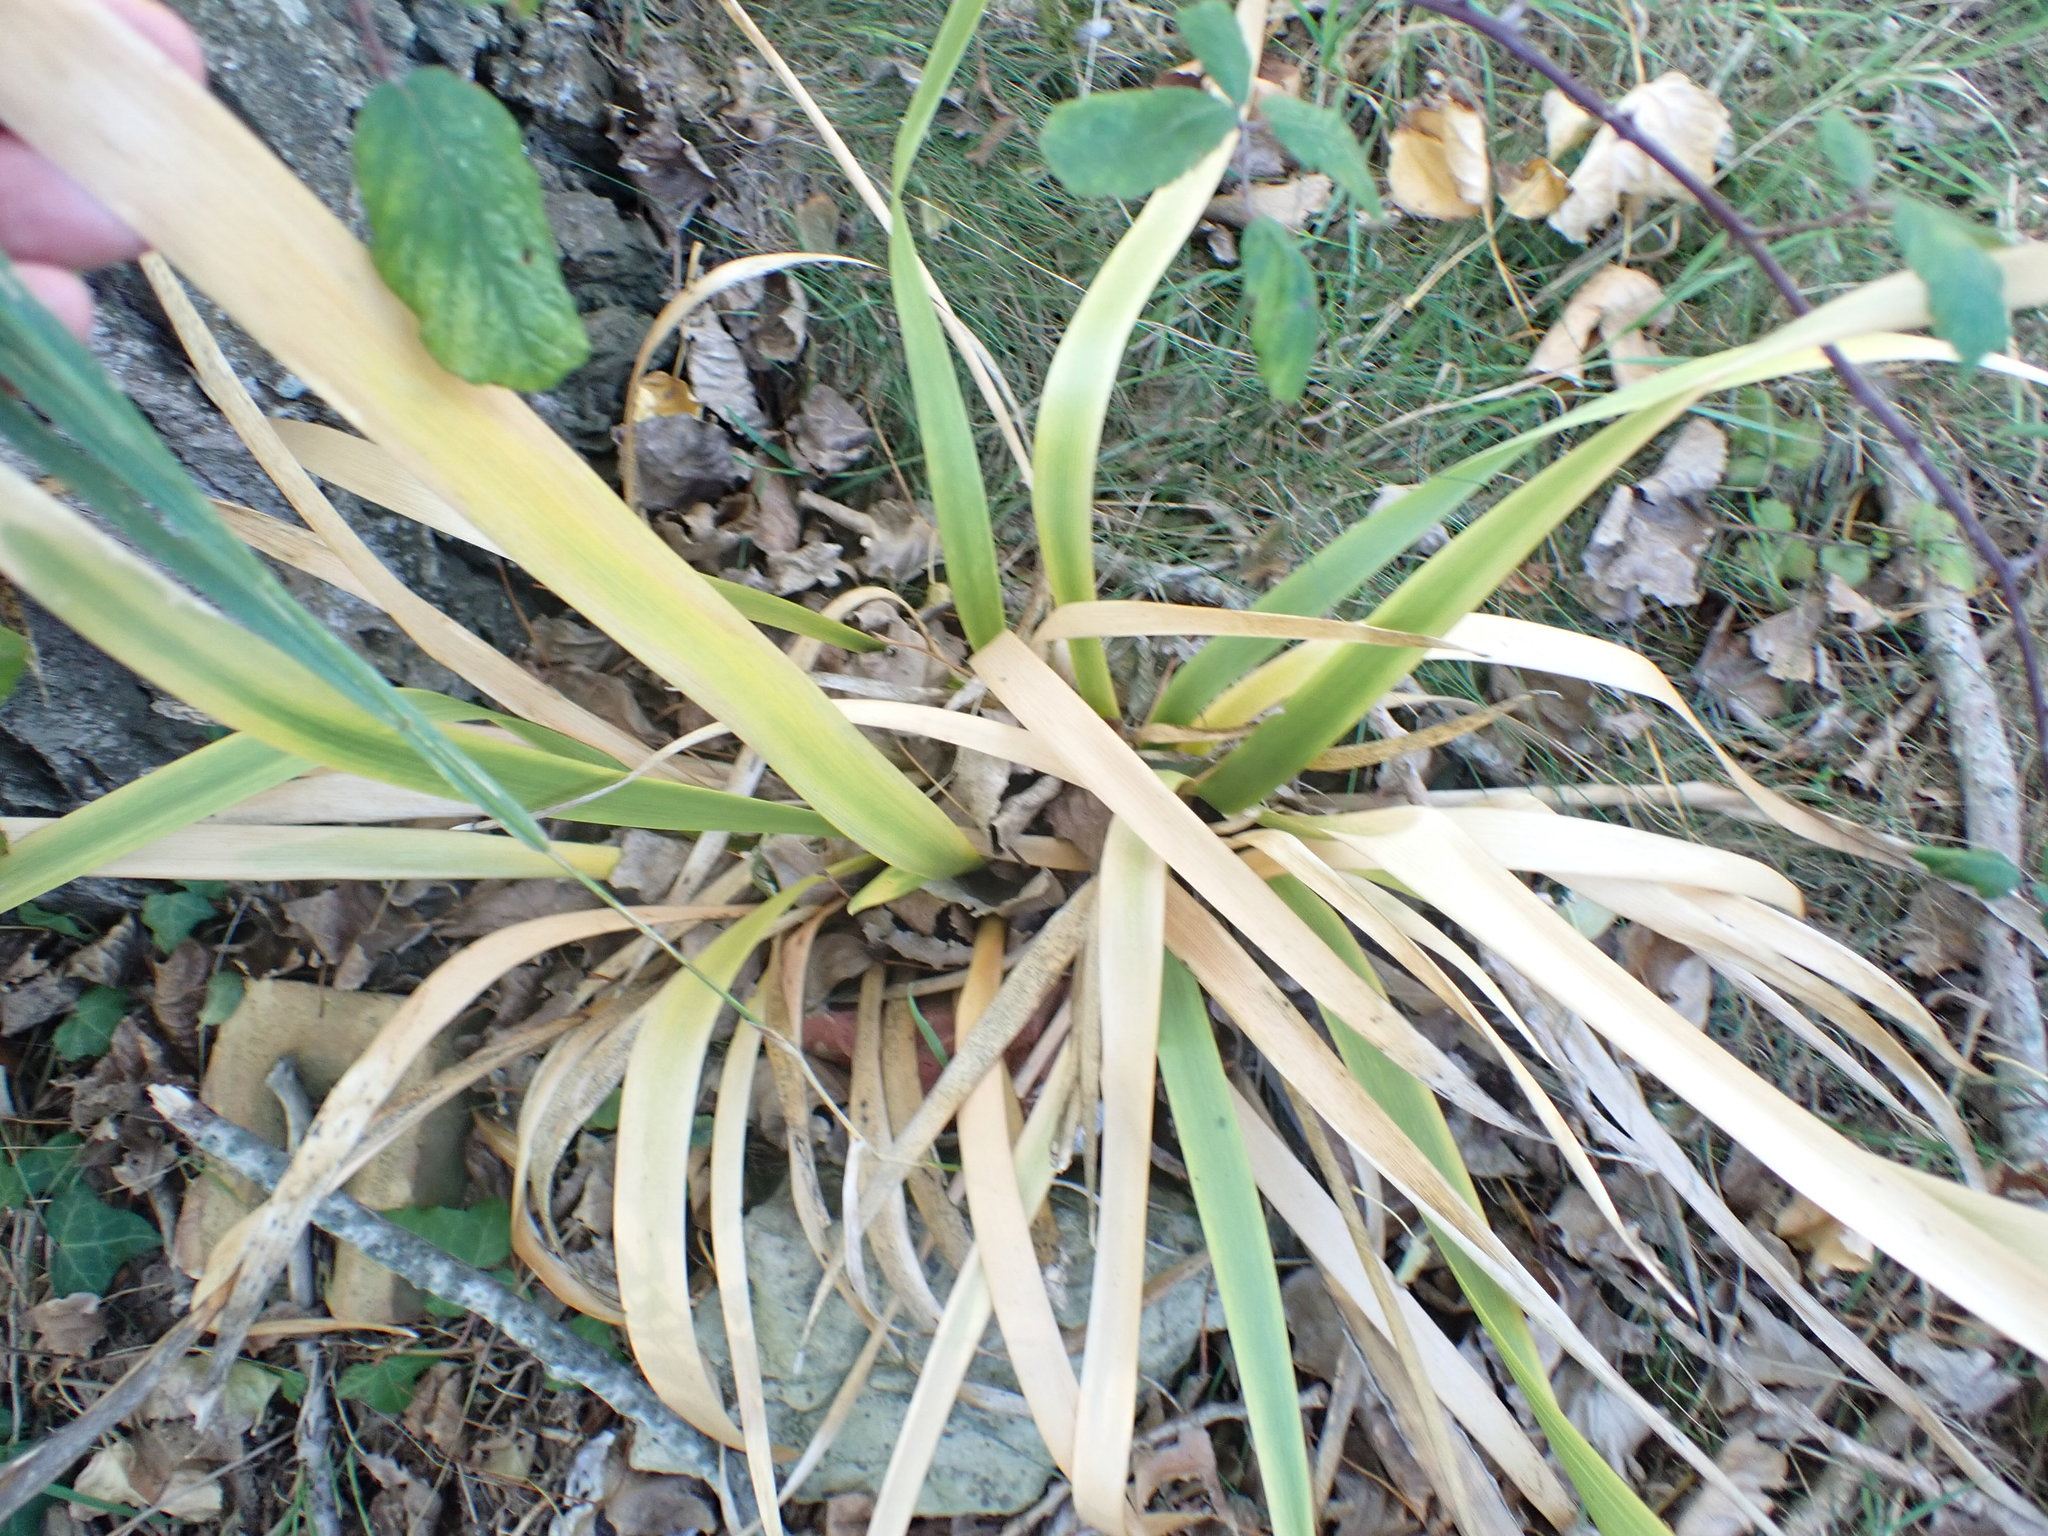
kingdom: Plantae
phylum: Tracheophyta
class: Liliopsida
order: Asparagales
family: Iridaceae
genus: Iris
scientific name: Iris foetidissima
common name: Stinking iris
